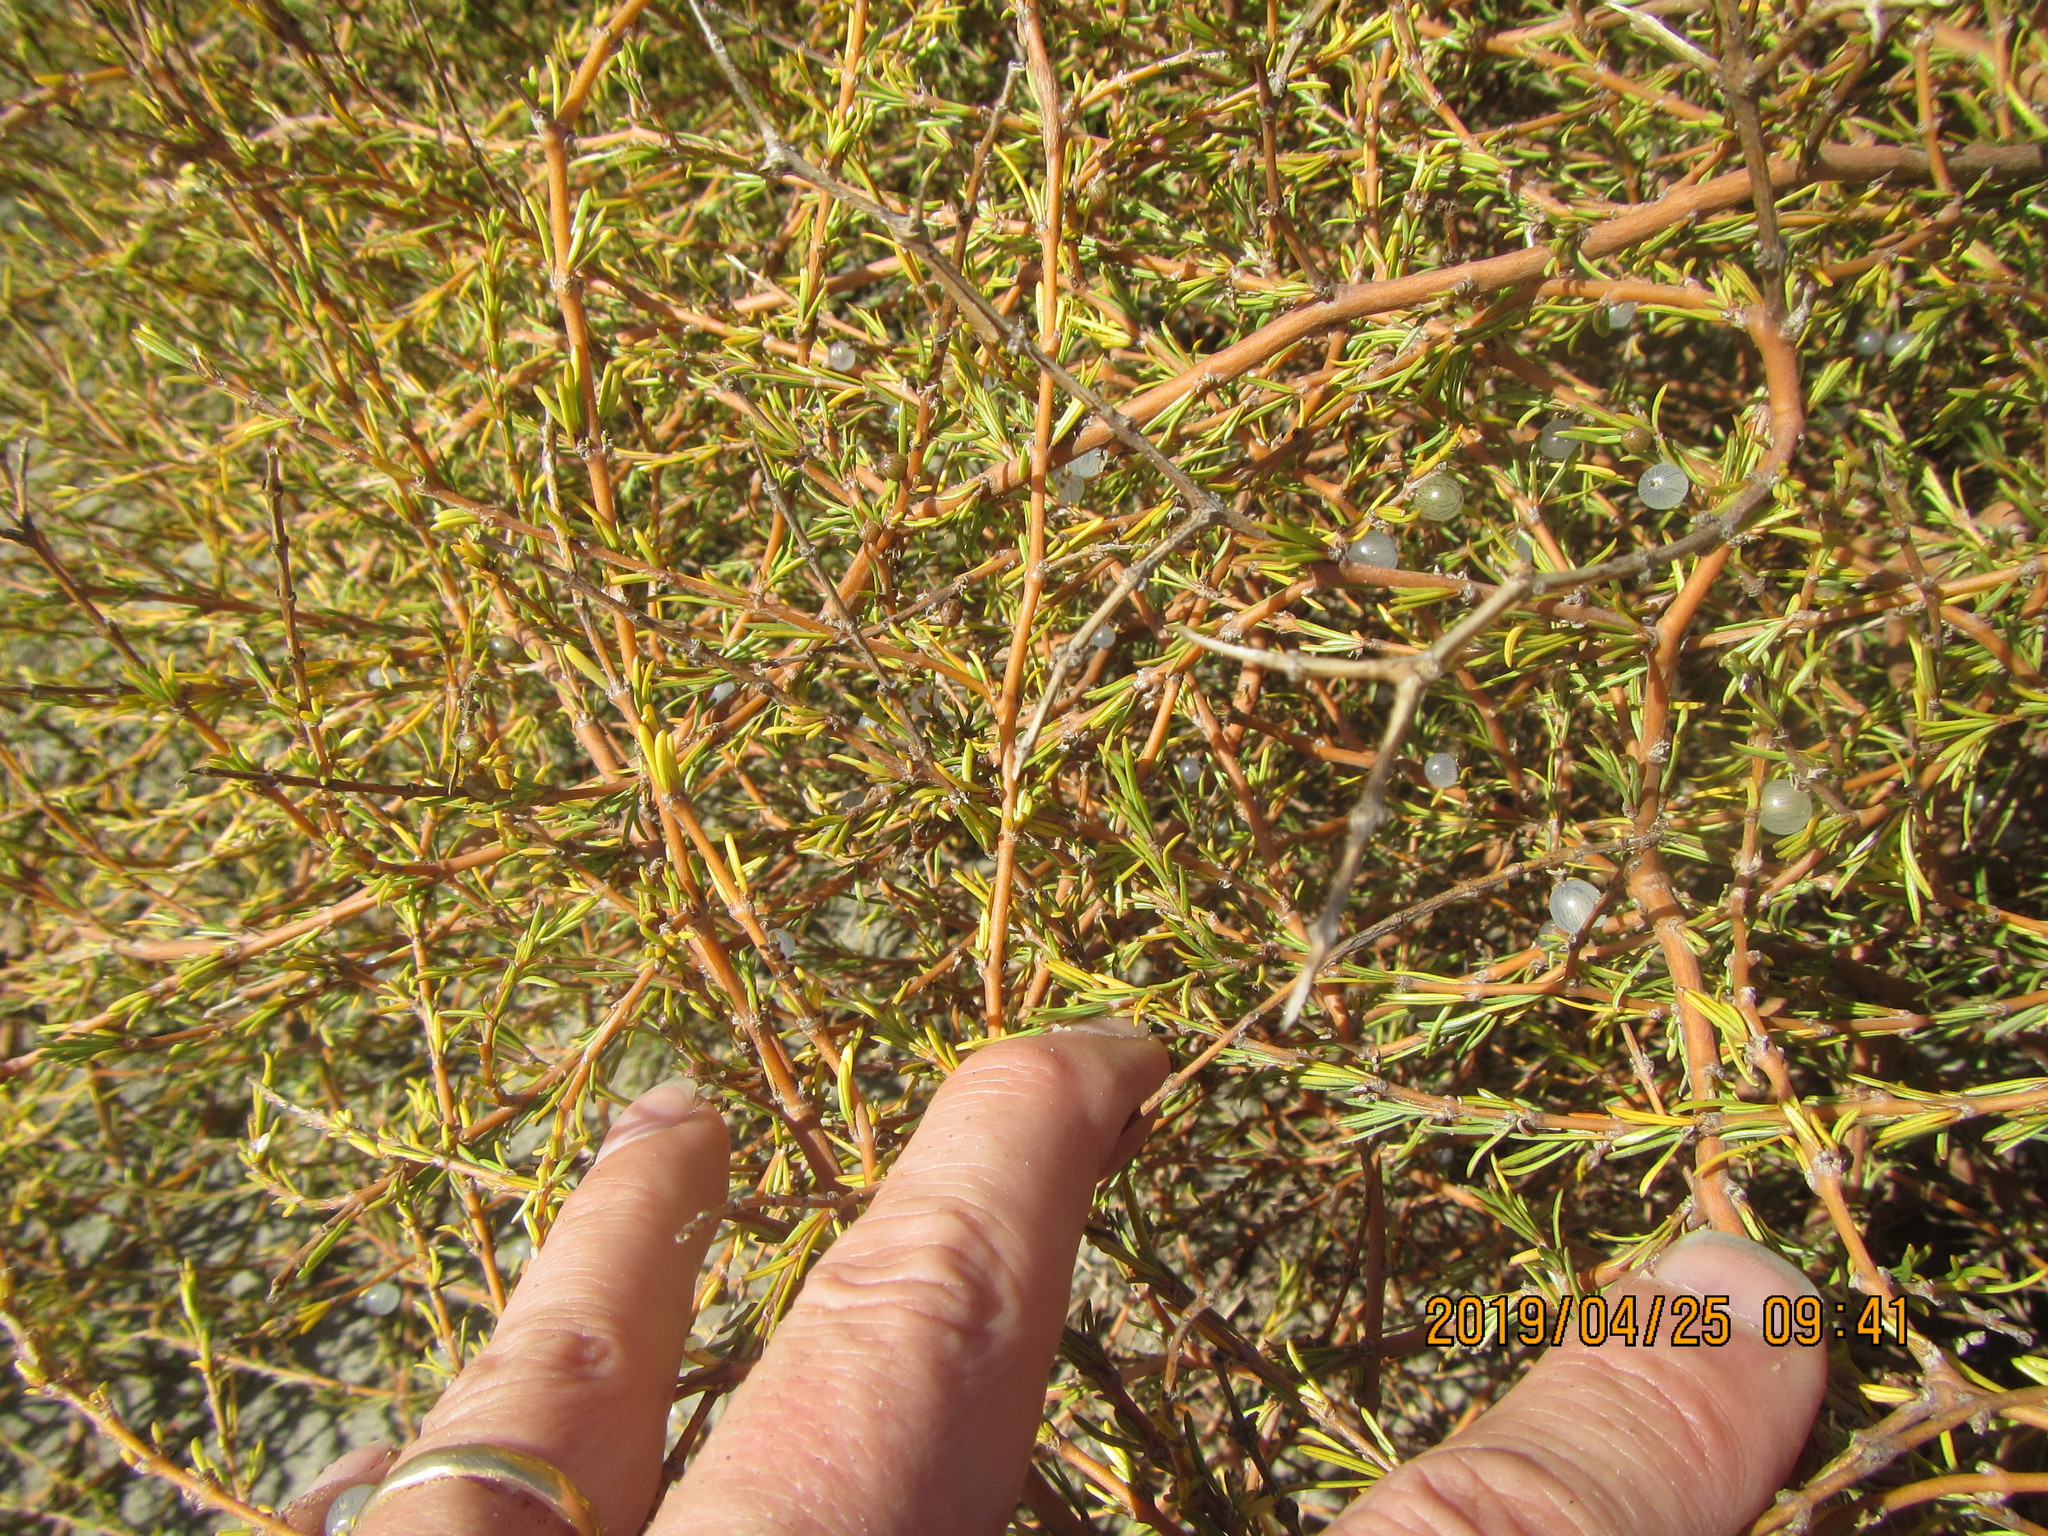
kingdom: Plantae
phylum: Tracheophyta
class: Magnoliopsida
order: Gentianales
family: Rubiaceae
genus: Coprosma
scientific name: Coprosma acerosa
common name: Sand coprosma
